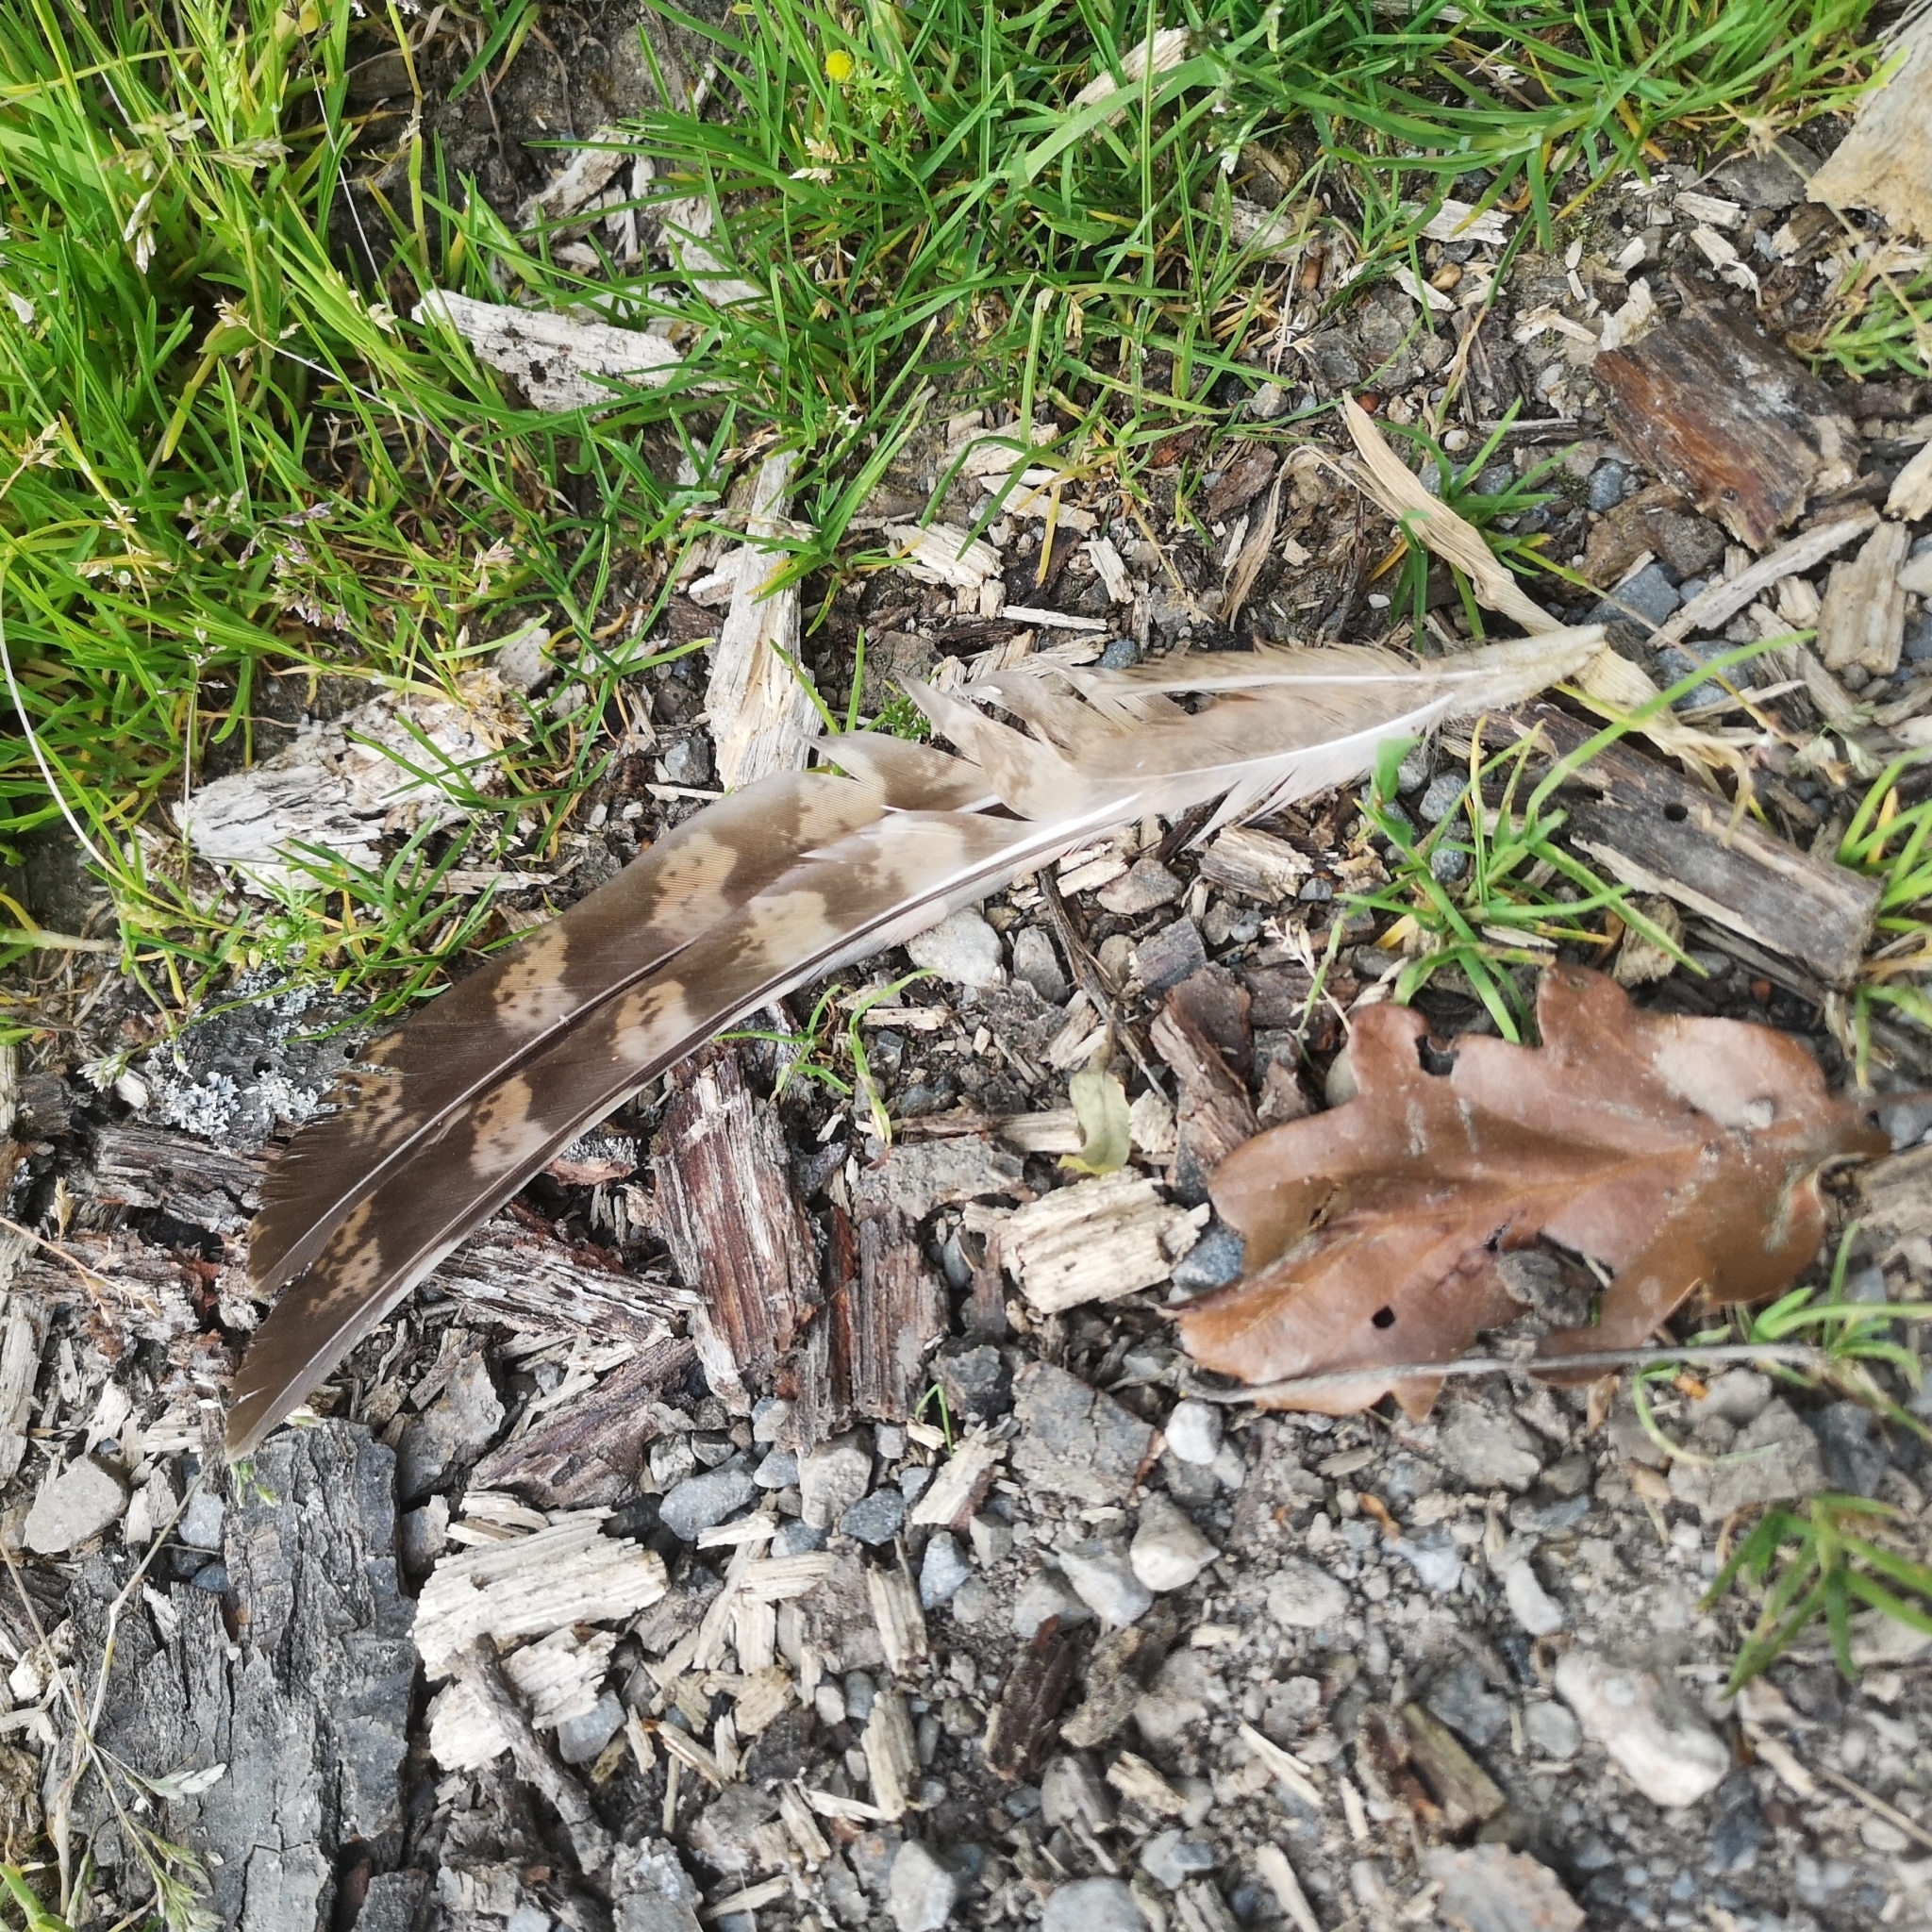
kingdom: Animalia
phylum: Chordata
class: Aves
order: Galliformes
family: Phasianidae
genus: Syrmaticus
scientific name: Syrmaticus reevesii
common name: Reeves's pheasant
